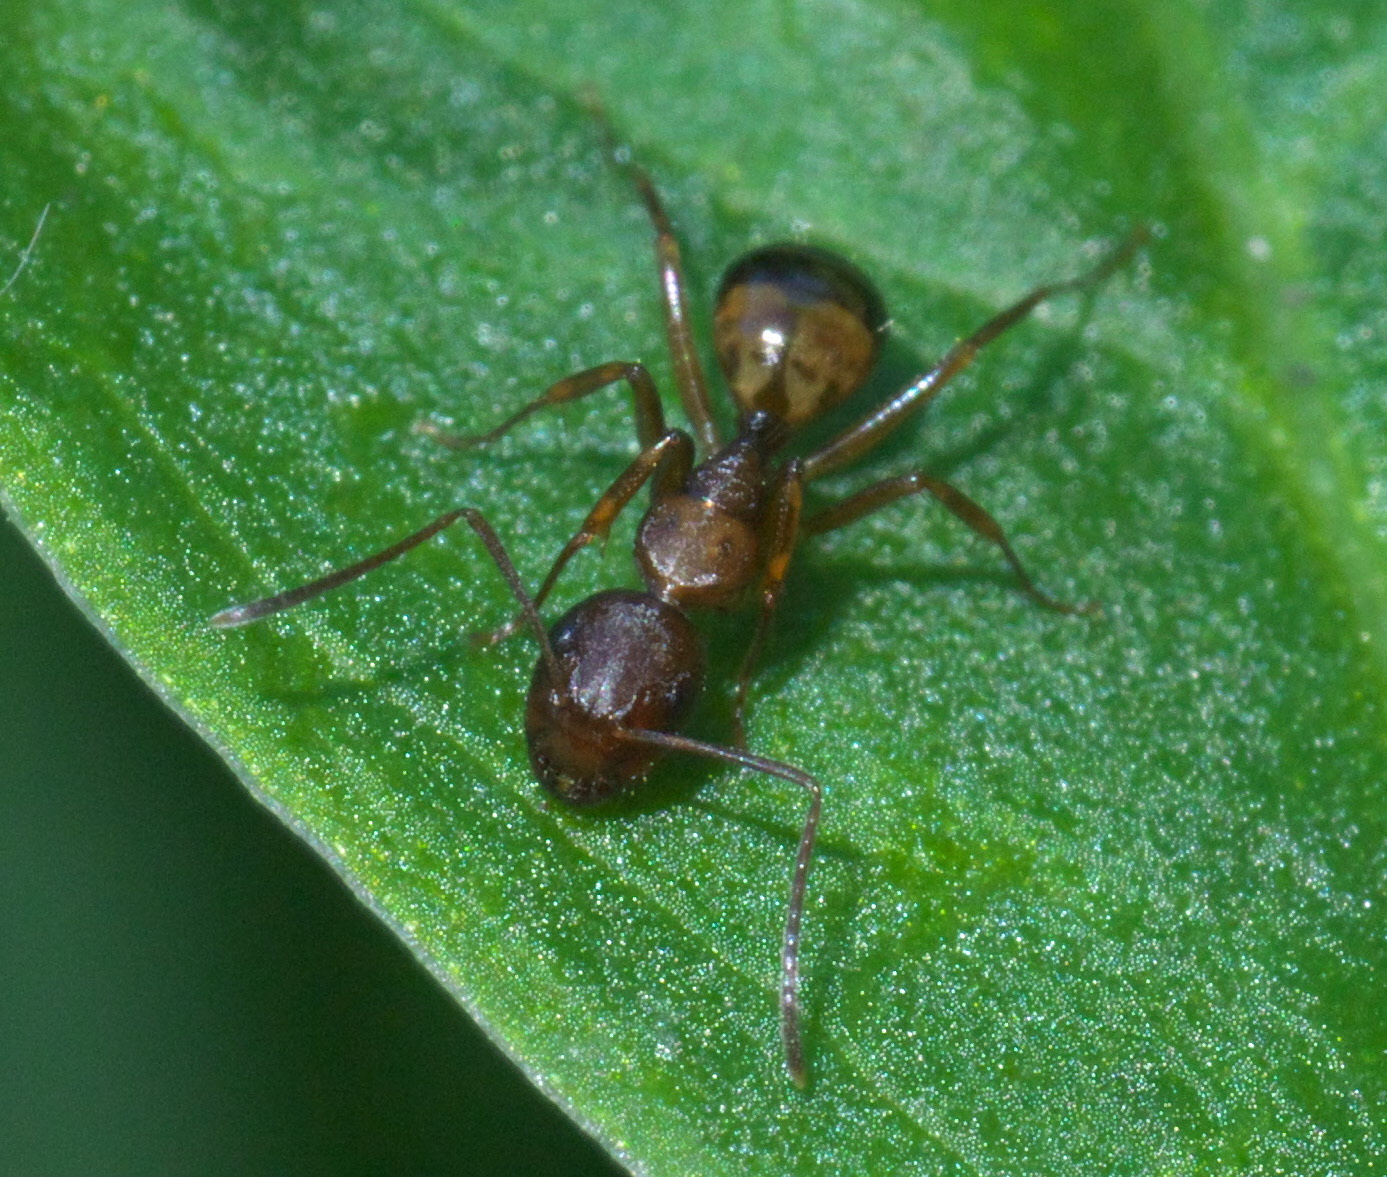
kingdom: Animalia
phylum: Arthropoda
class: Insecta
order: Hymenoptera
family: Formicidae
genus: Camponotus
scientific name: Camponotus subbarbatus
